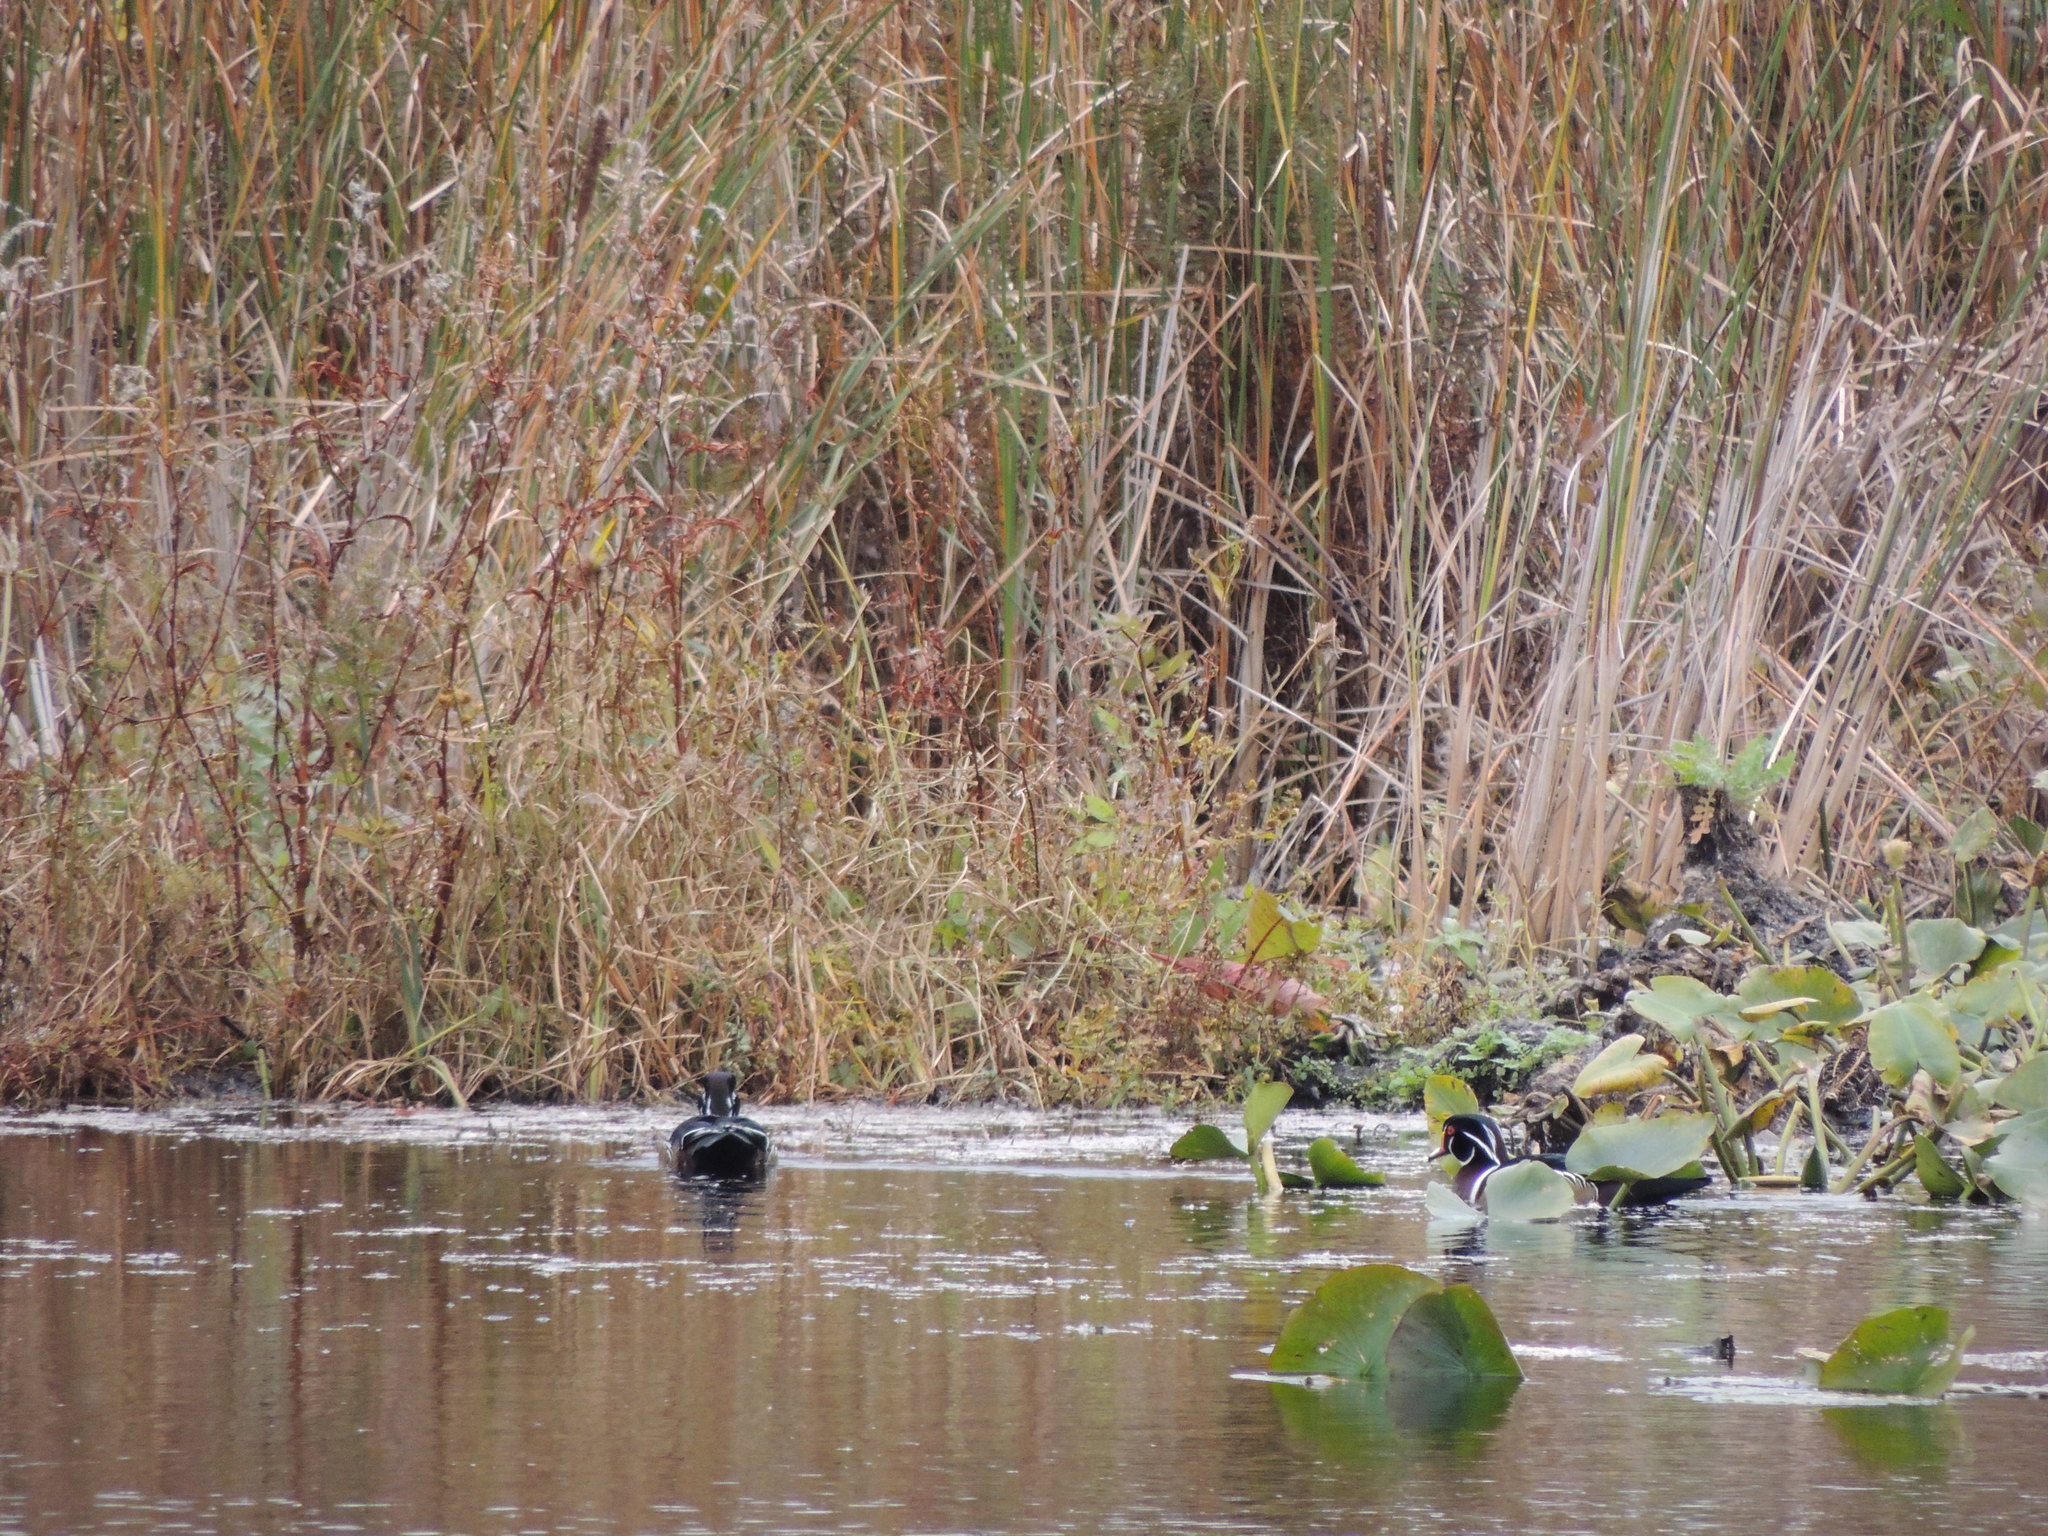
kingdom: Animalia
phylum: Chordata
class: Aves
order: Anseriformes
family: Anatidae
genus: Aix
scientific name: Aix sponsa
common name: Wood duck
